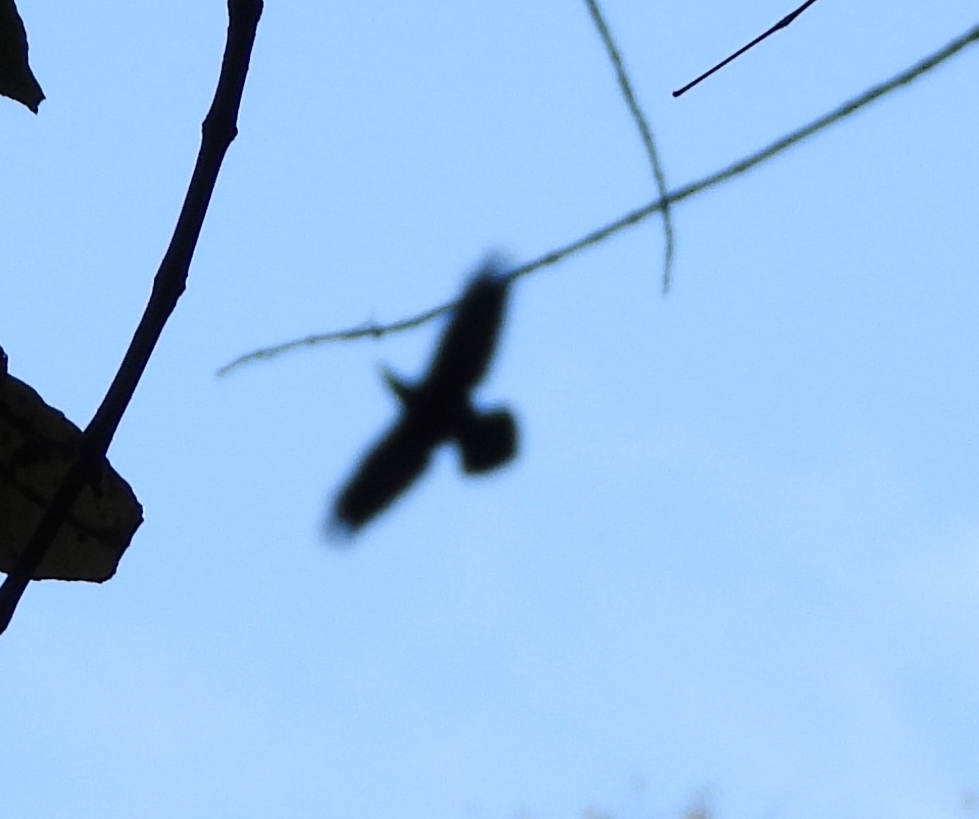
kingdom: Animalia
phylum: Chordata
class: Aves
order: Passeriformes
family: Corvidae
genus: Corvus
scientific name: Corvus corax
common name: Common raven
